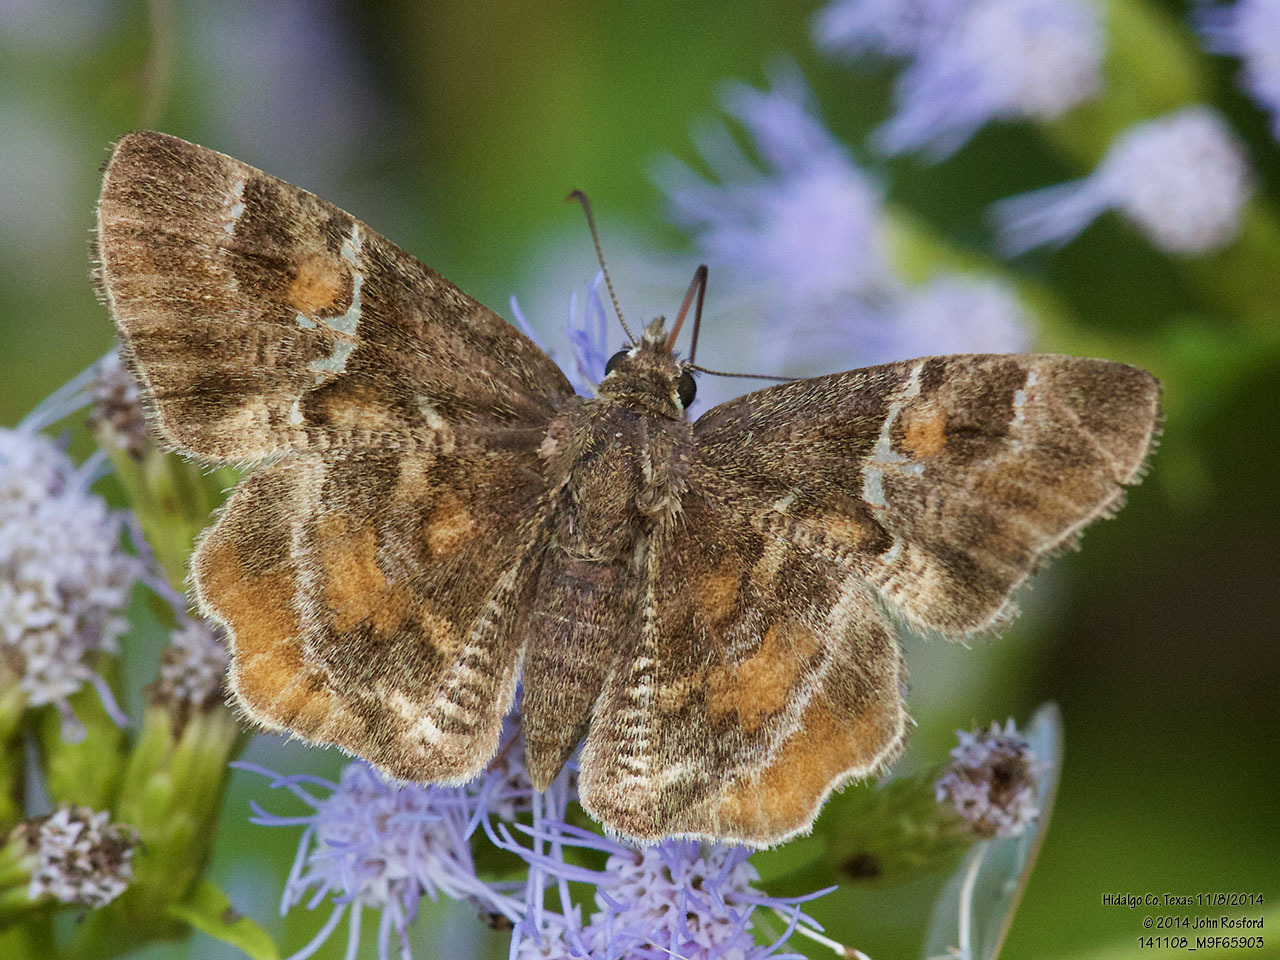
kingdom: Animalia
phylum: Arthropoda
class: Insecta
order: Lepidoptera
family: Hesperiidae
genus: Systasea
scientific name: Systasea pulverulenta
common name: Texas powdered skipper
